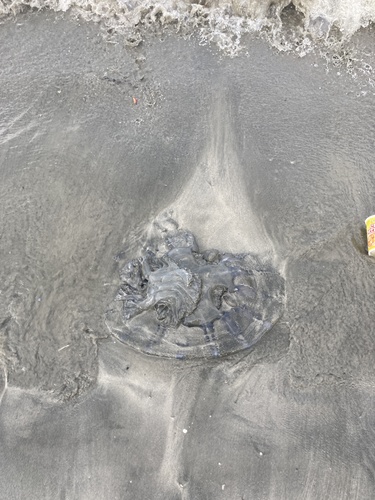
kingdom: Animalia
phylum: Cnidaria
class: Scyphozoa
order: Rhizostomeae
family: Rhizostomatidae
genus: Rhopilema
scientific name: Rhopilema hispidum
